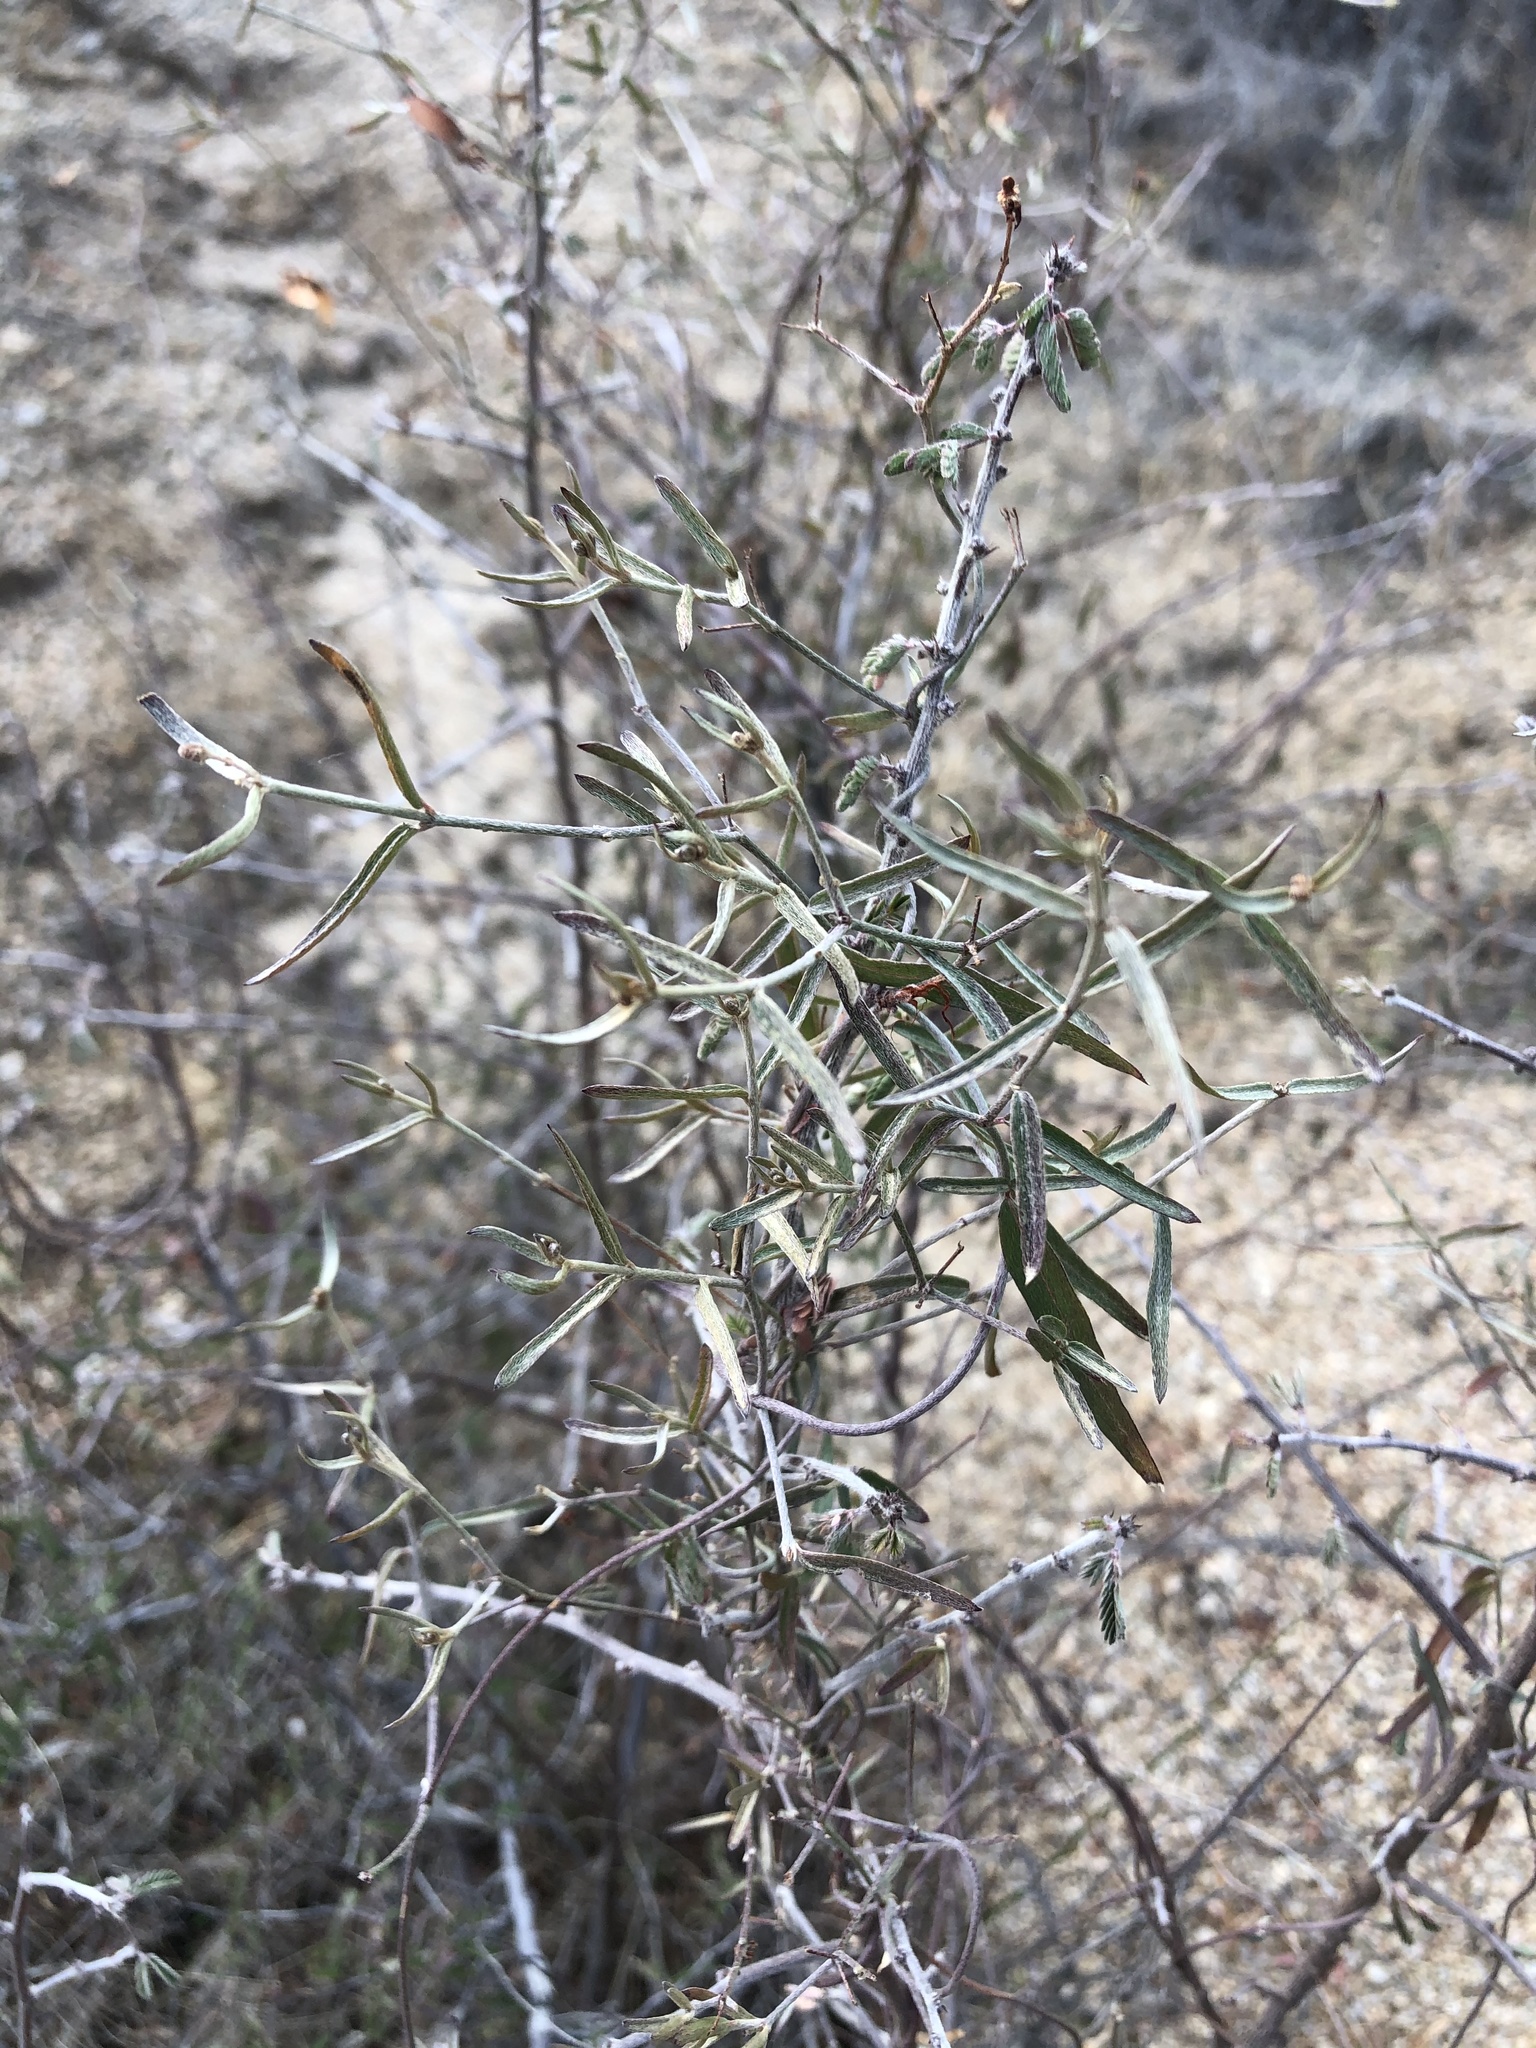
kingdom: Plantae
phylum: Tracheophyta
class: Magnoliopsida
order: Malpighiales
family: Malpighiaceae
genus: Cottsia
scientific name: Cottsia gracilis
